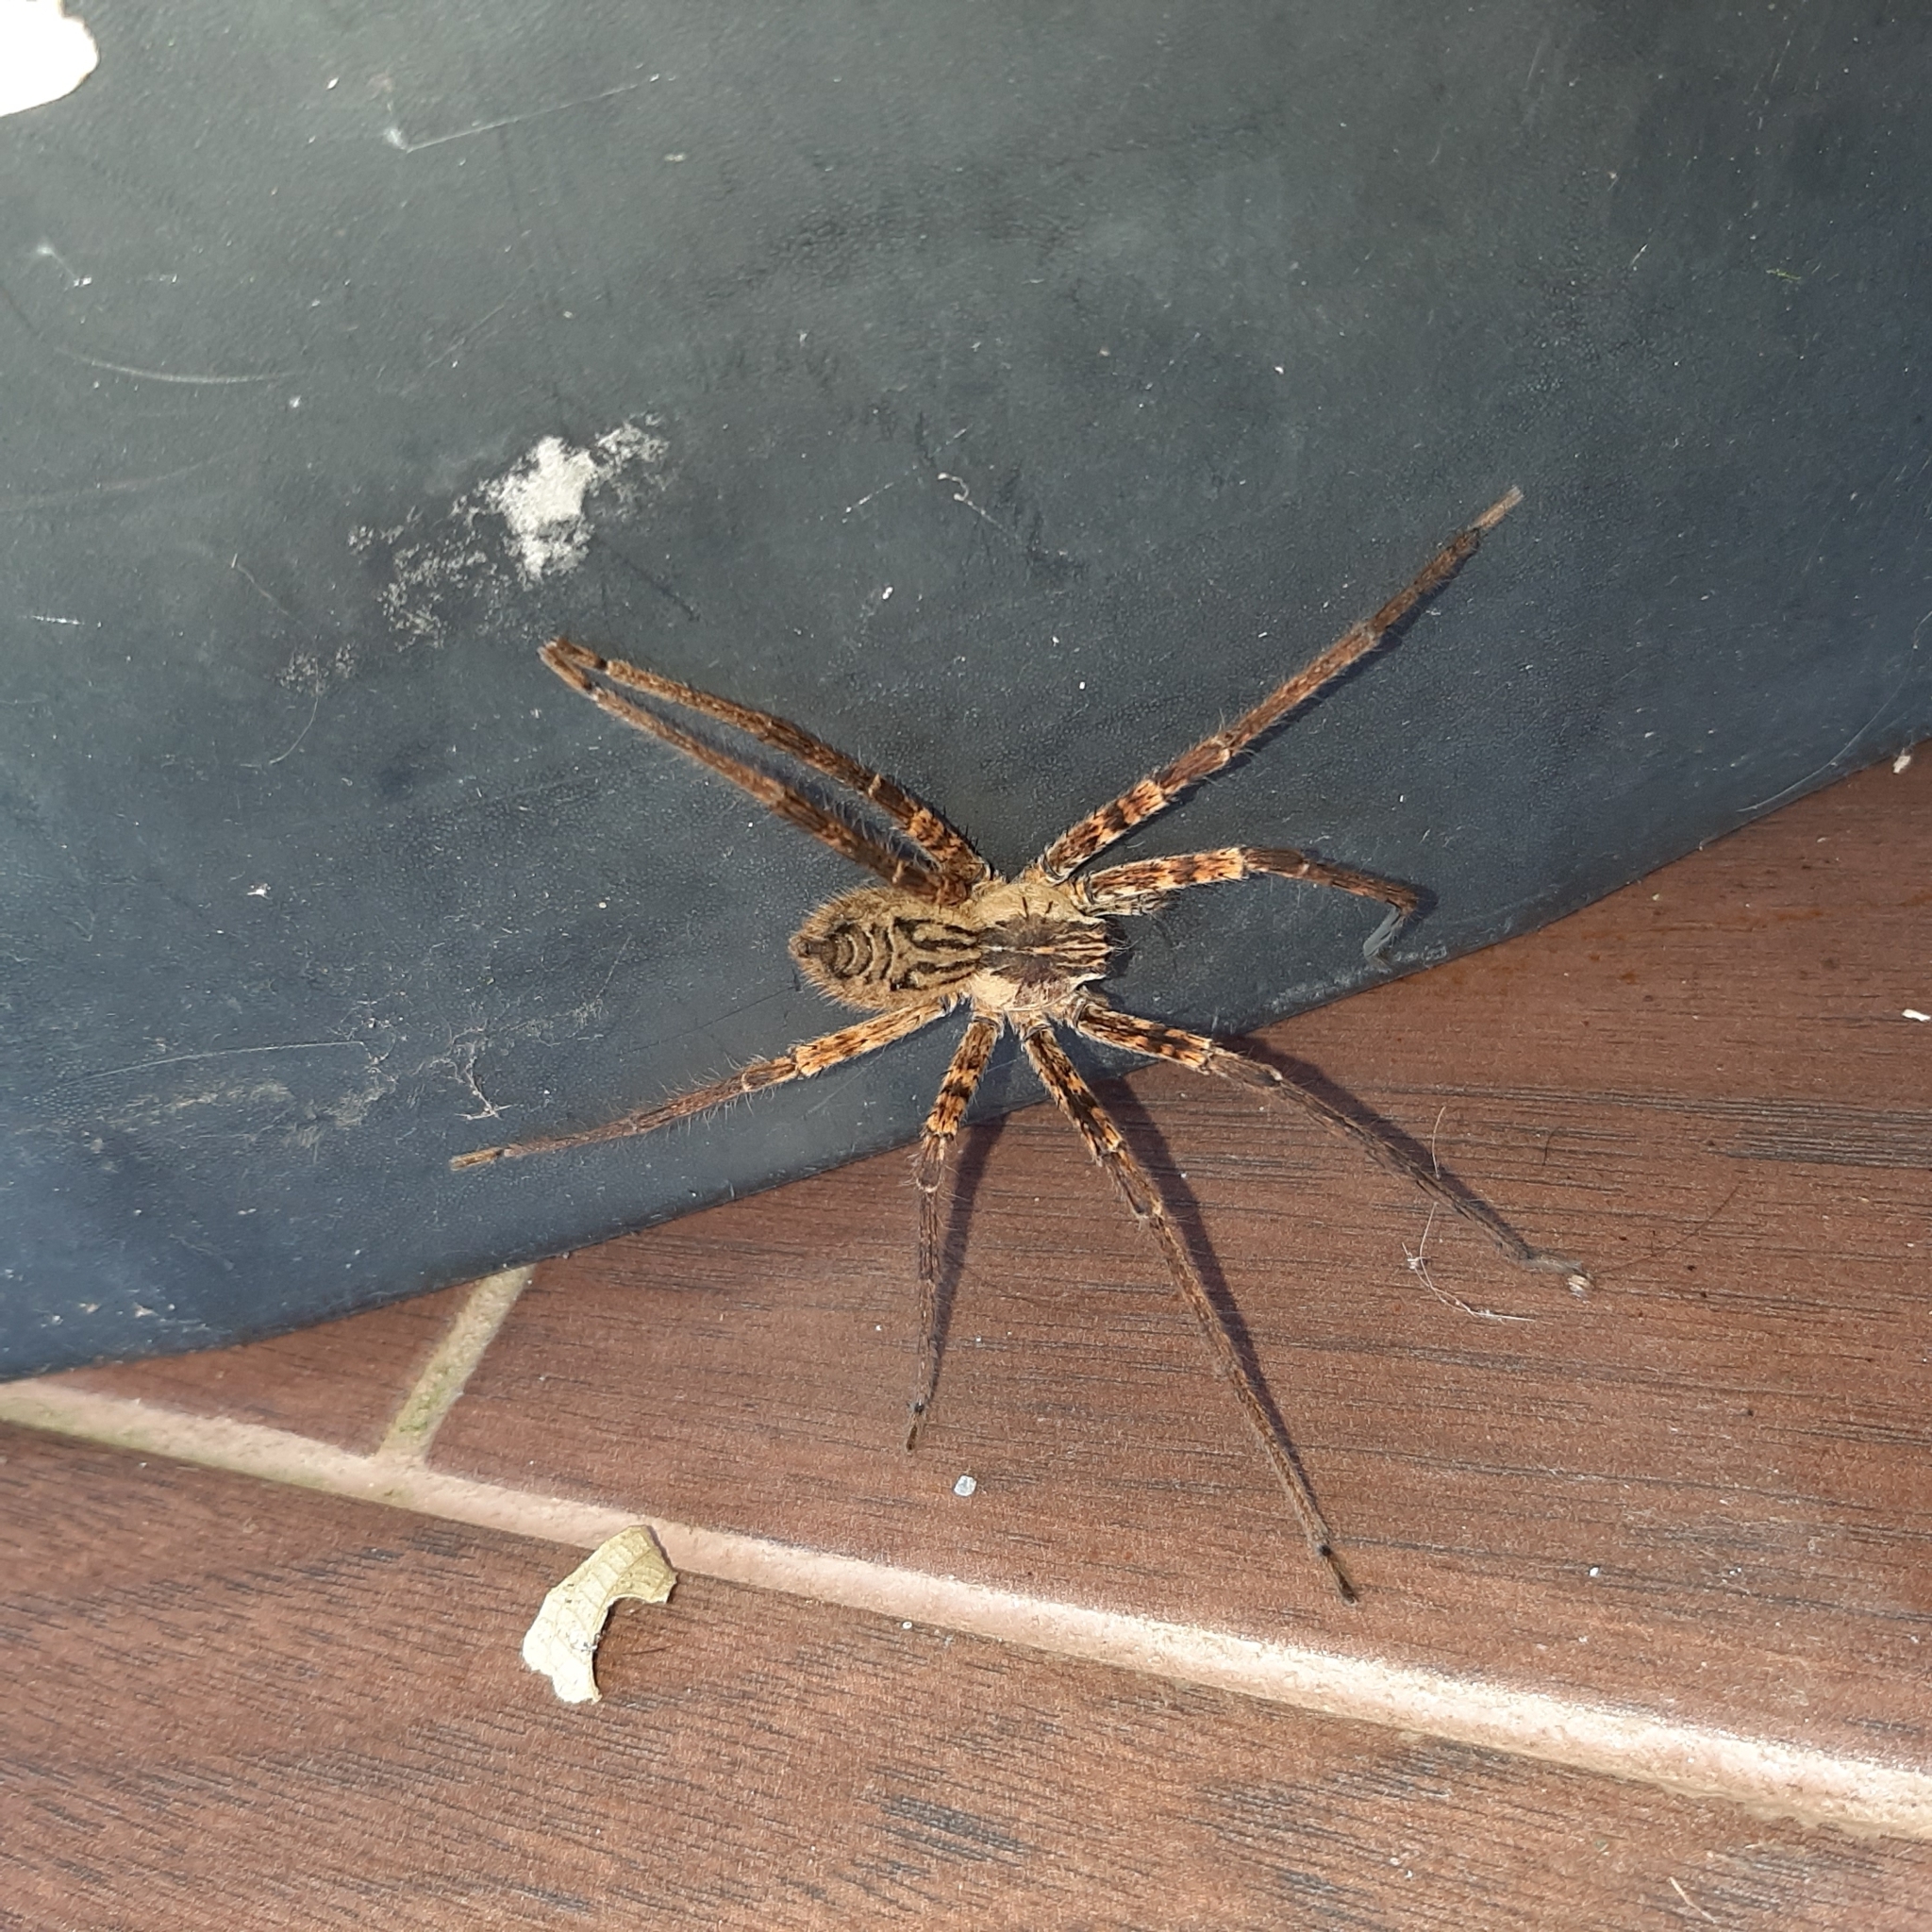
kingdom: Animalia
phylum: Arthropoda
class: Arachnida
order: Araneae
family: Trechaleidae
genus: Cupiennius
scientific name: Cupiennius coccineus
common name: Wandering spiders
